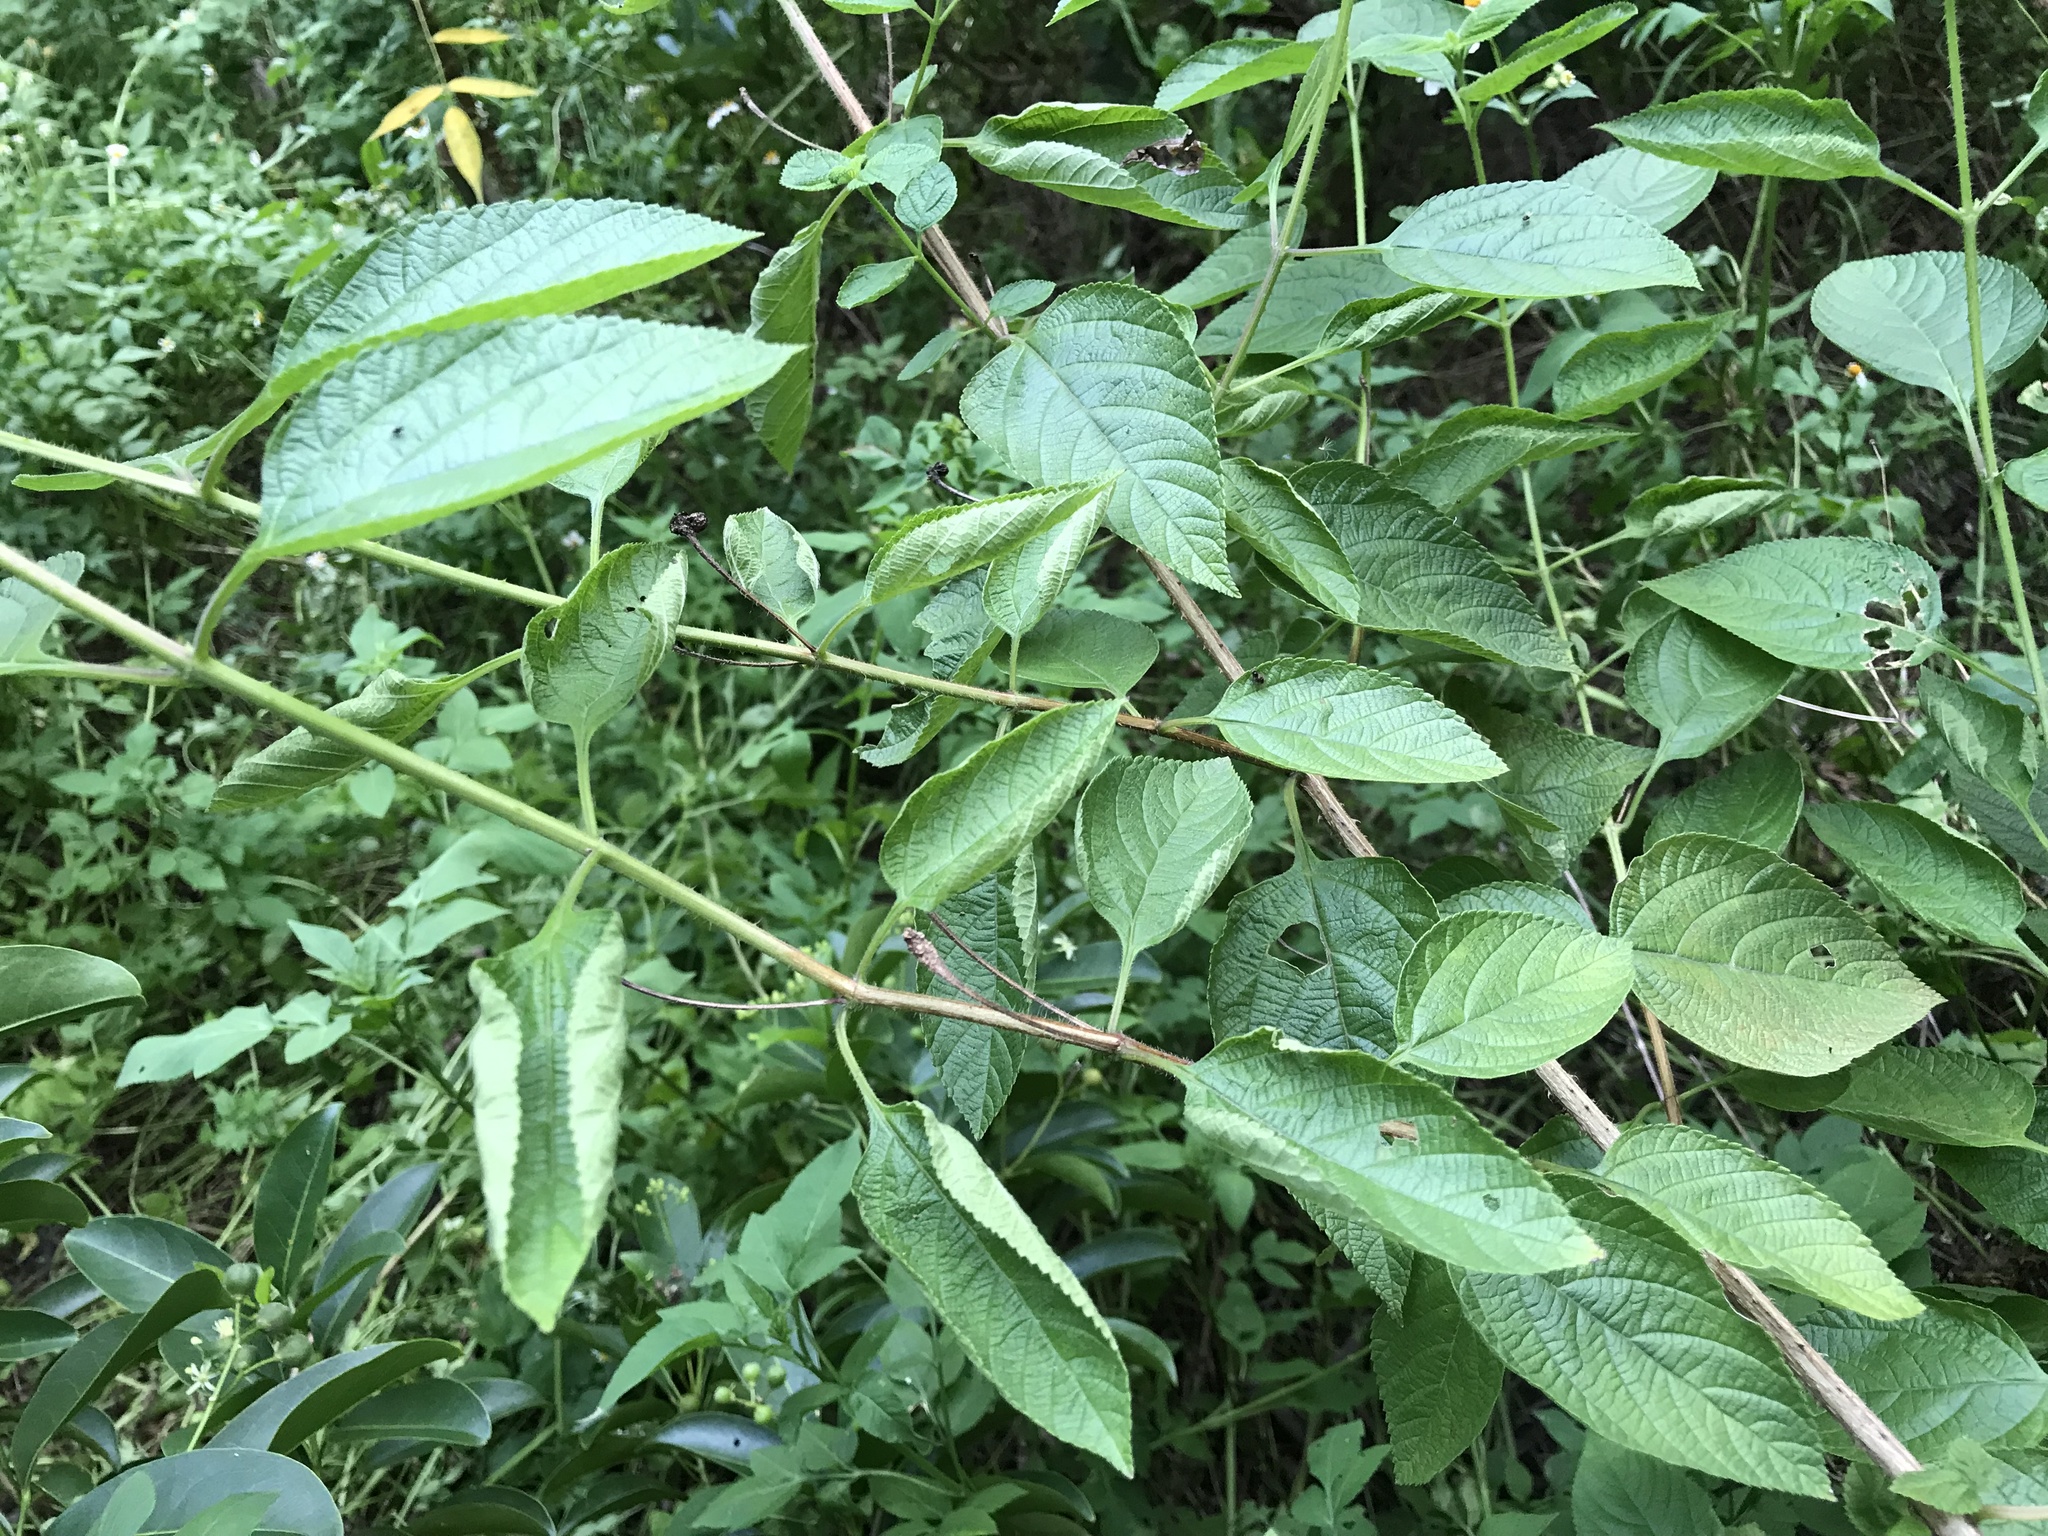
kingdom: Plantae
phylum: Tracheophyta
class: Magnoliopsida
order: Lamiales
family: Verbenaceae
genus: Lantana
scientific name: Lantana camara
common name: Lantana
